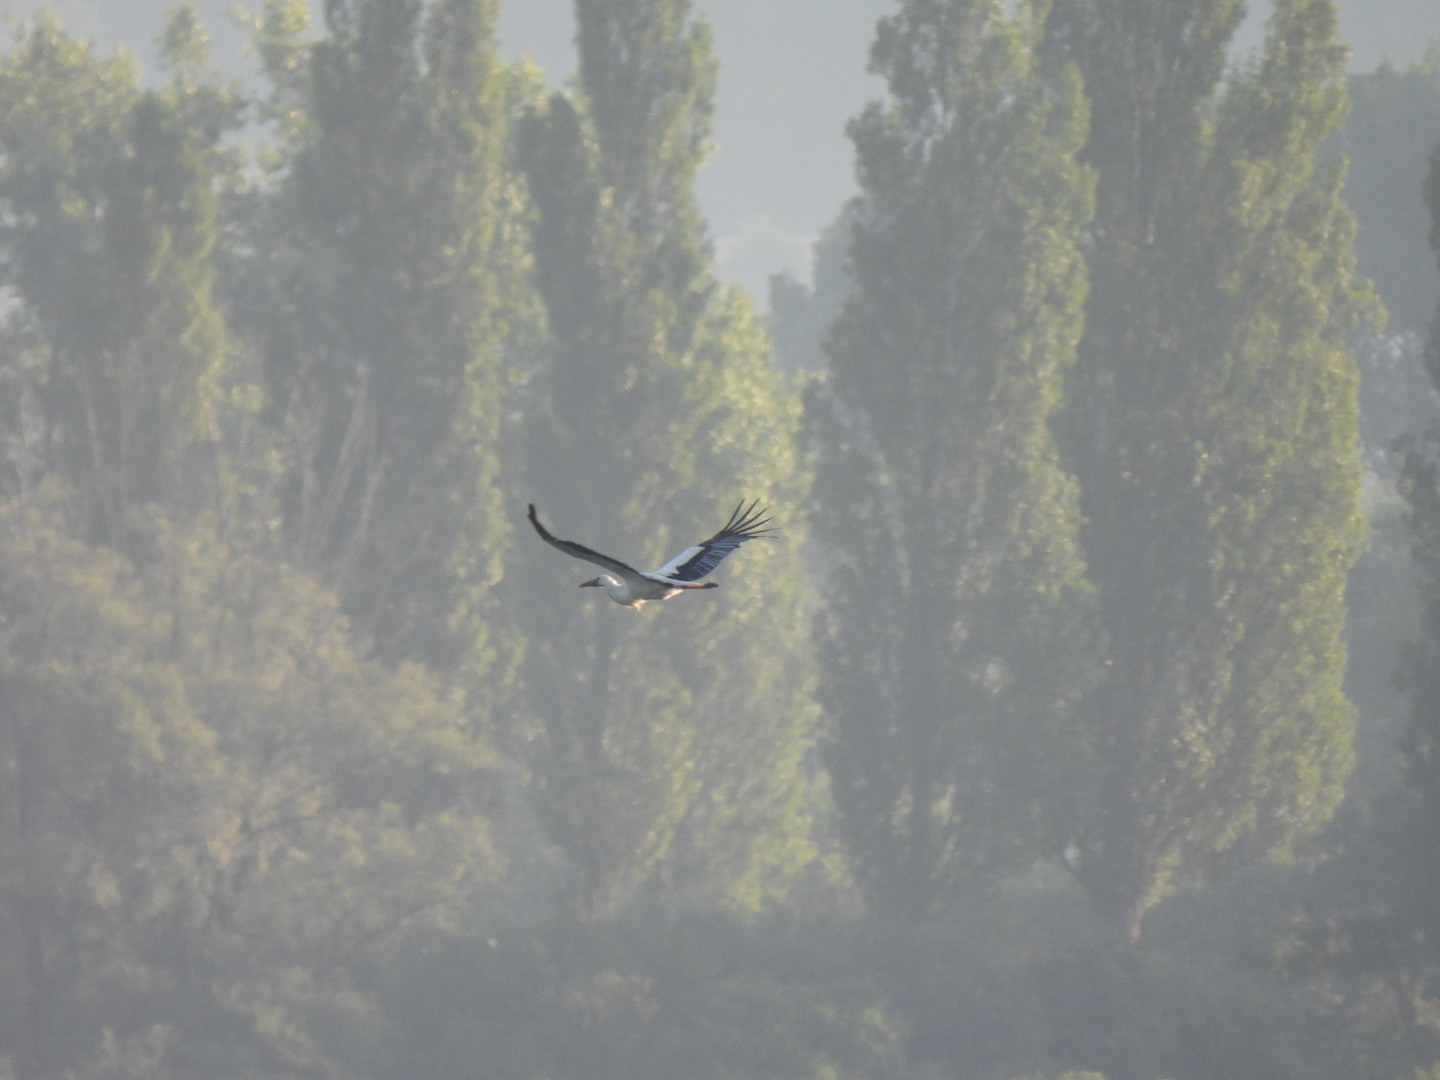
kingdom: Animalia
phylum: Chordata
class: Aves
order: Ciconiiformes
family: Ciconiidae
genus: Ciconia
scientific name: Ciconia ciconia
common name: White stork
